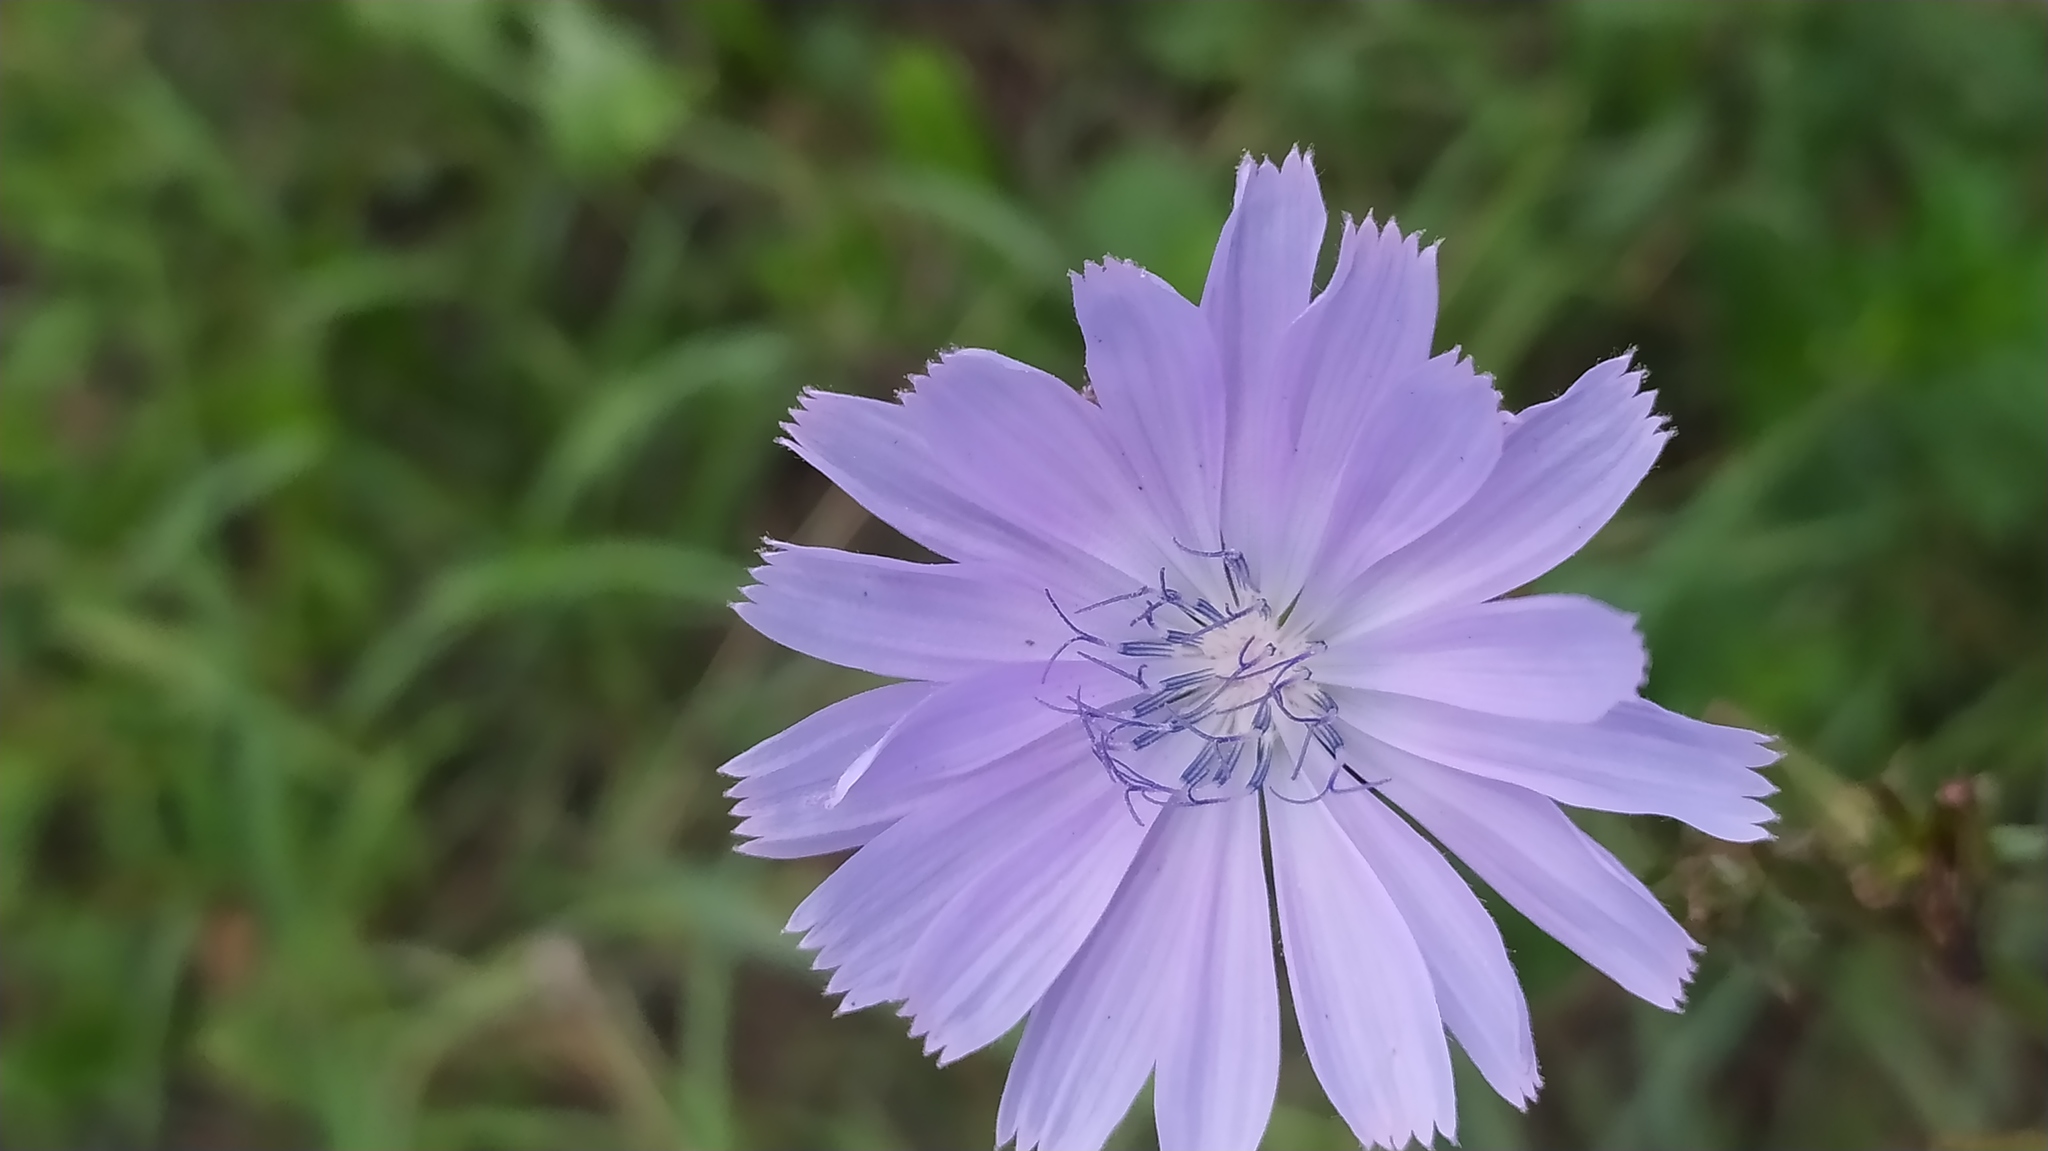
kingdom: Plantae
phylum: Tracheophyta
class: Magnoliopsida
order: Asterales
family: Asteraceae
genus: Cichorium
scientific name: Cichorium intybus
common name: Chicory
